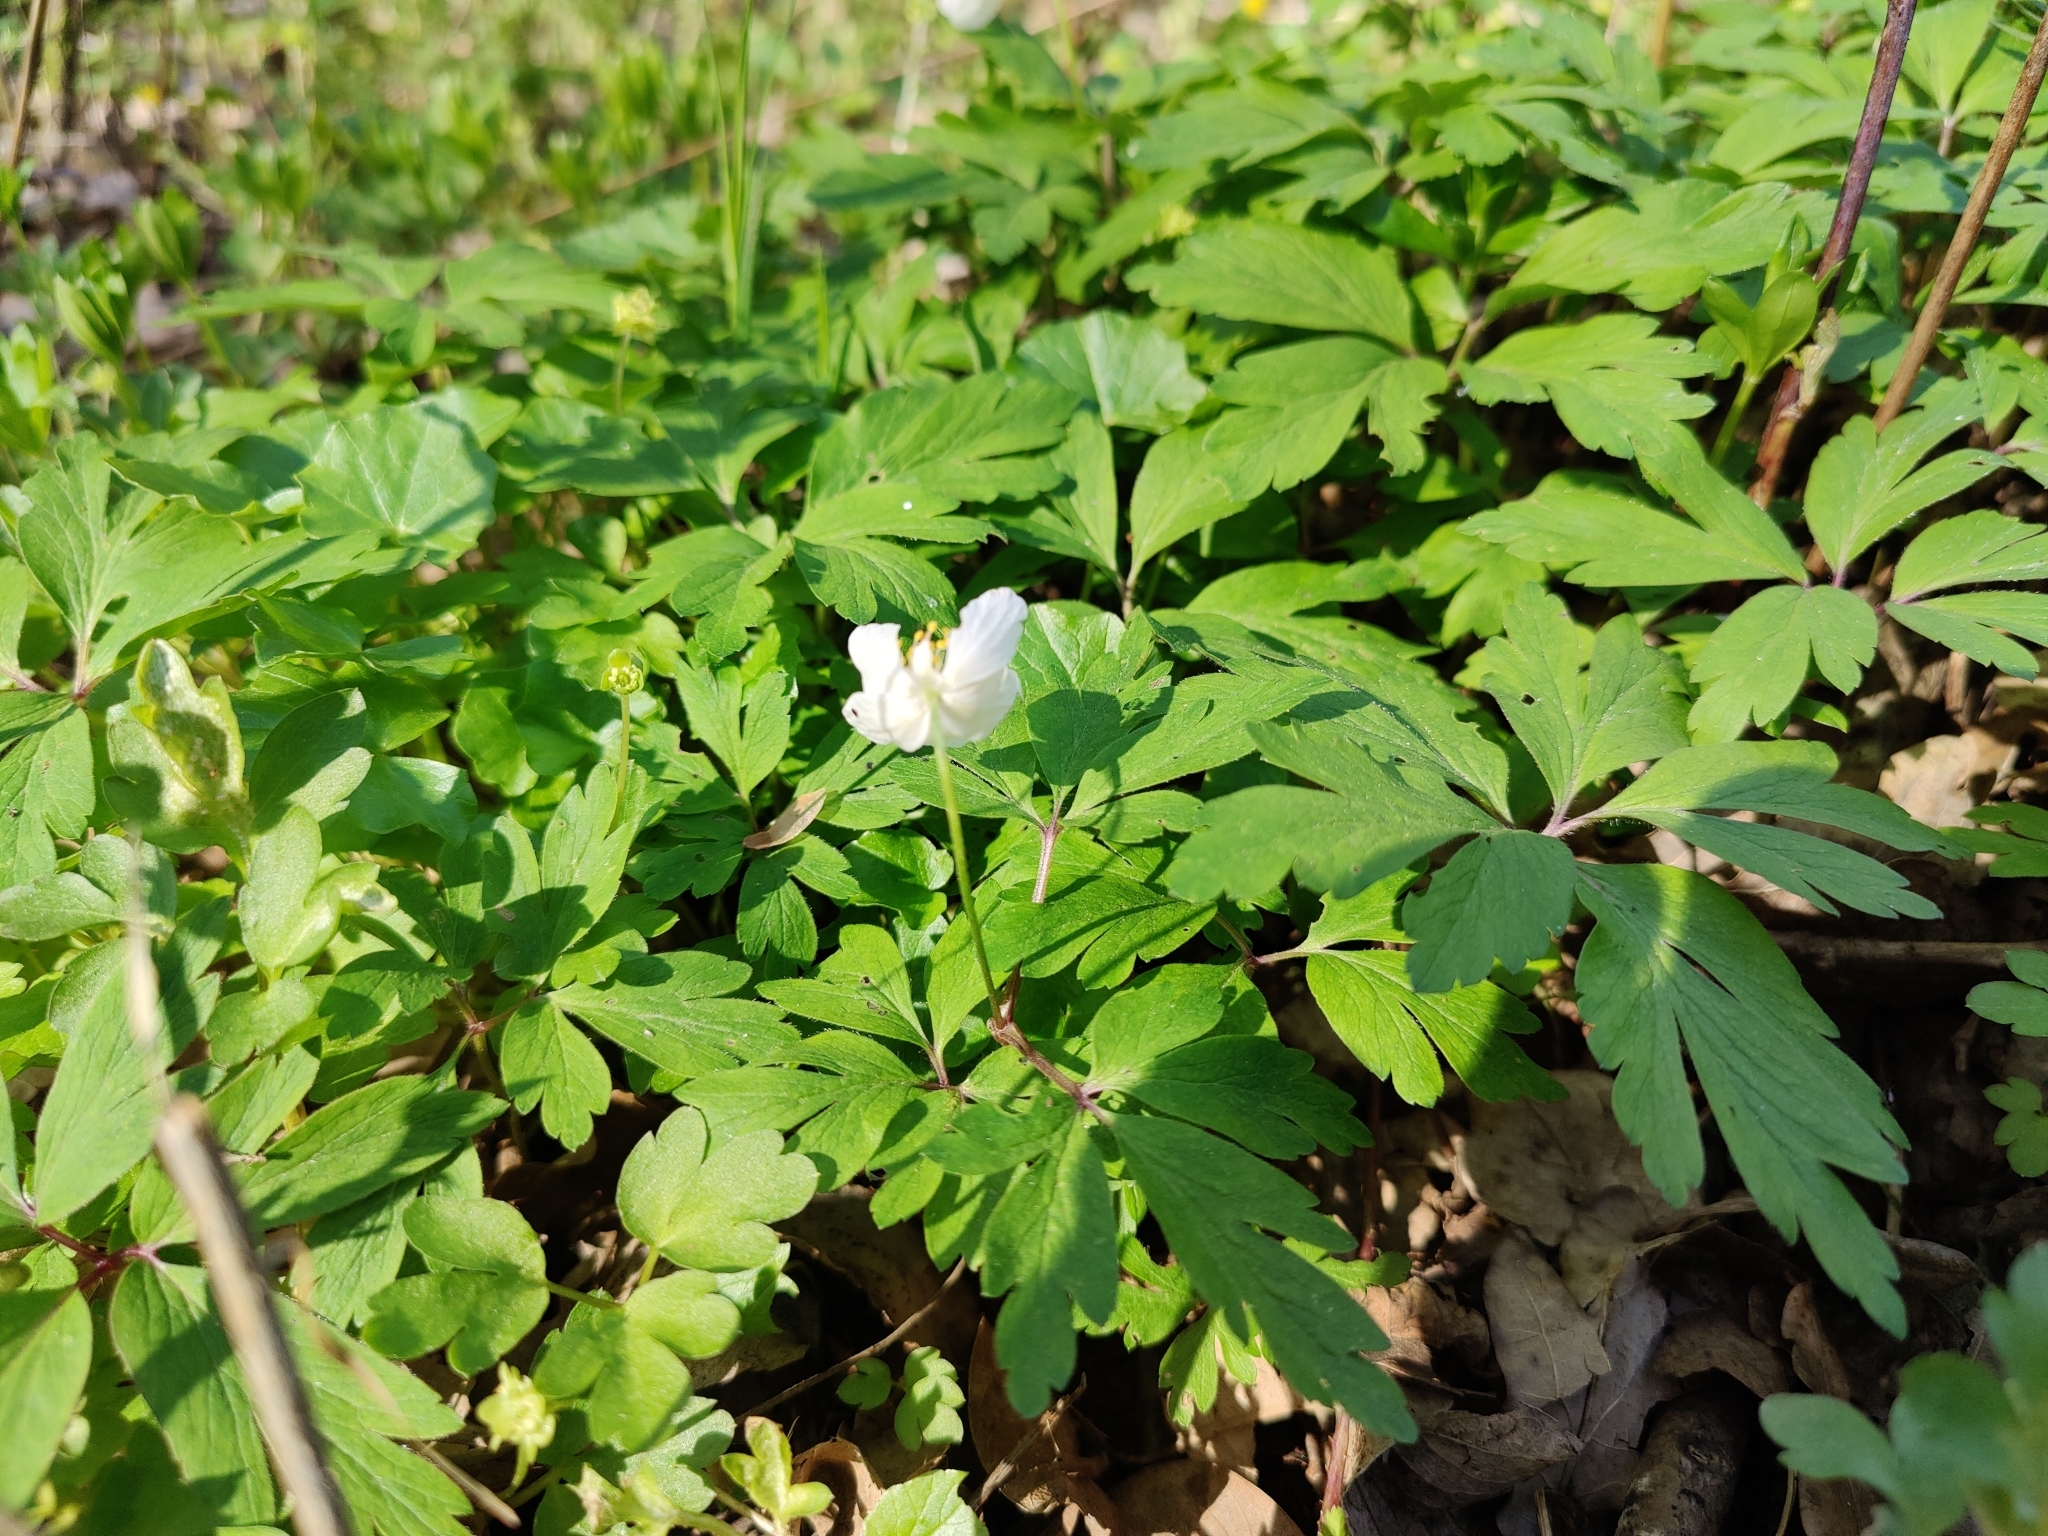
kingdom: Plantae
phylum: Tracheophyta
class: Magnoliopsida
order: Ranunculales
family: Ranunculaceae
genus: Anemone
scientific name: Anemone nemorosa
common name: Wood anemone
